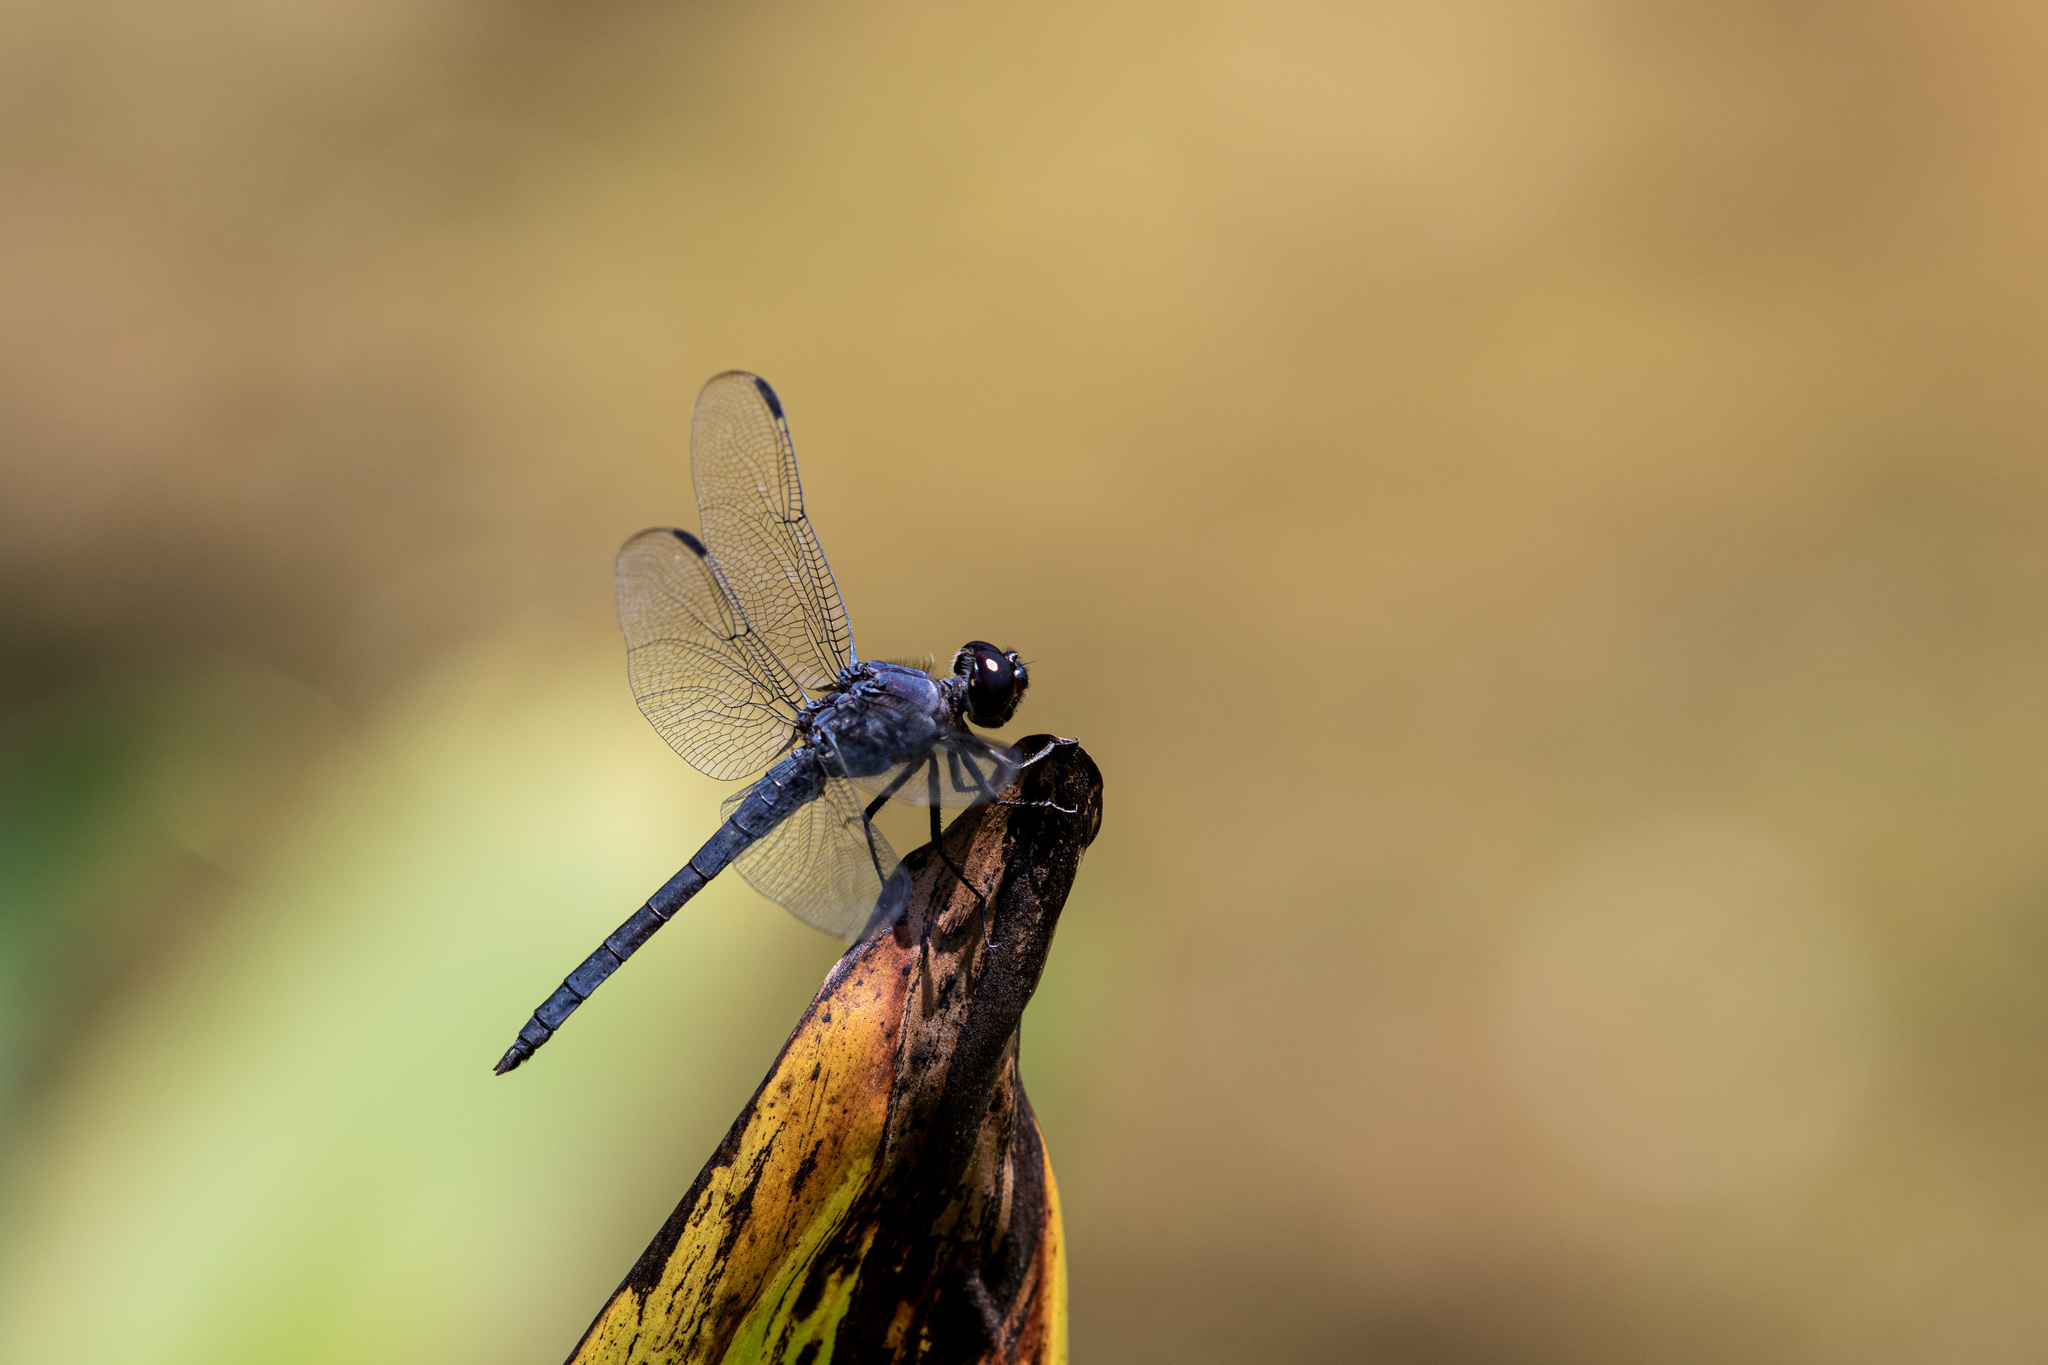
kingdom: Animalia
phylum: Arthropoda
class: Insecta
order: Odonata
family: Libellulidae
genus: Libellula
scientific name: Libellula incesta
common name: Slaty skimmer
